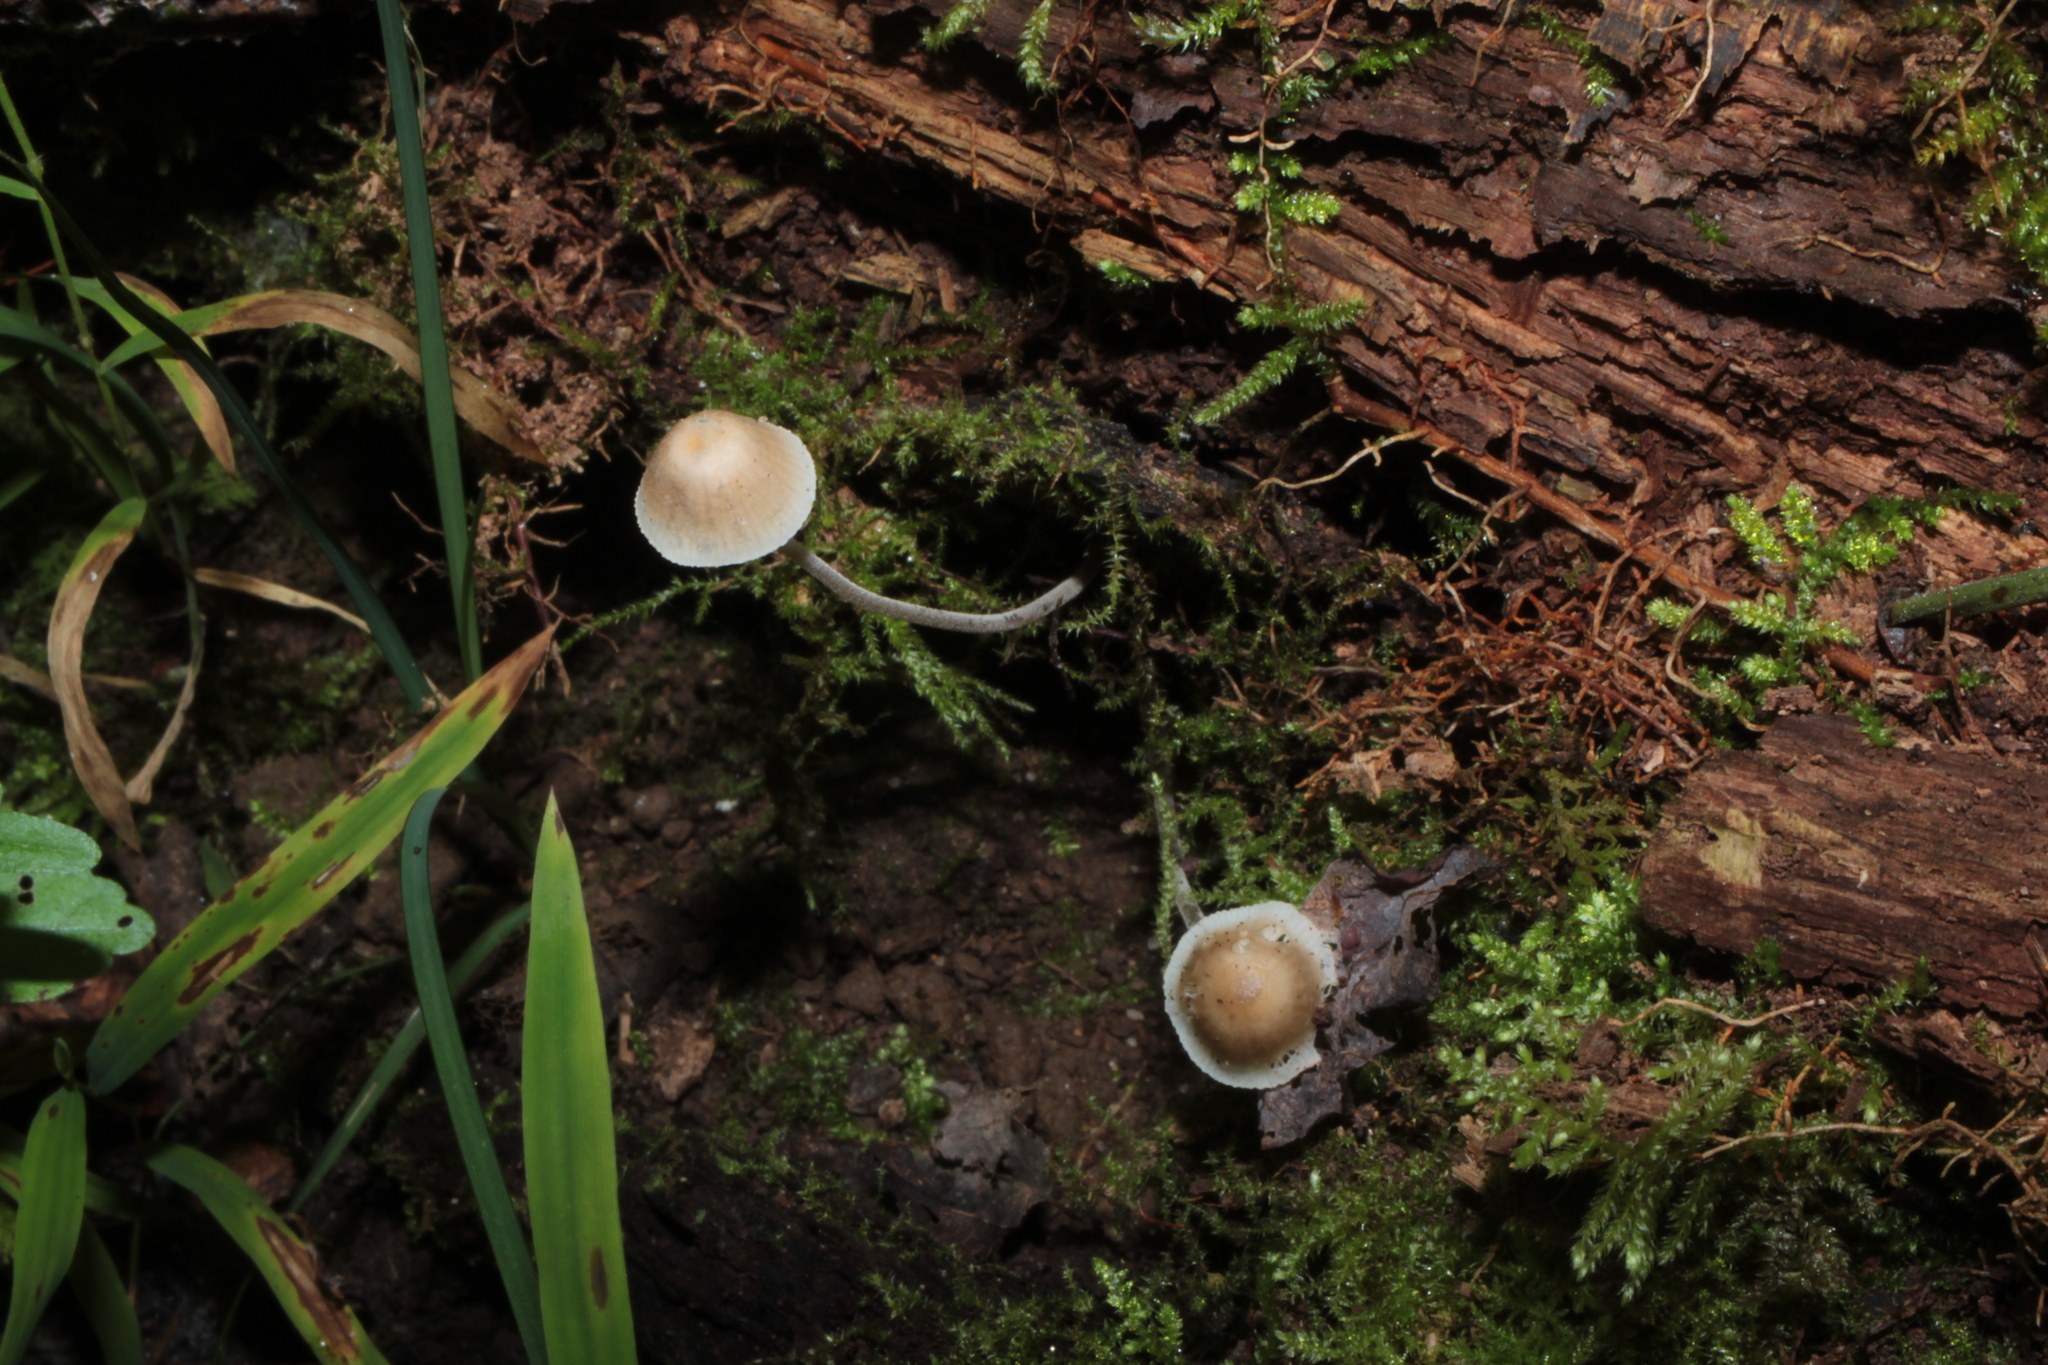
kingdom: Fungi
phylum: Basidiomycota
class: Agaricomycetes
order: Agaricales
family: Mycenaceae
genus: Mycena
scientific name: Mycena subcaerulea
